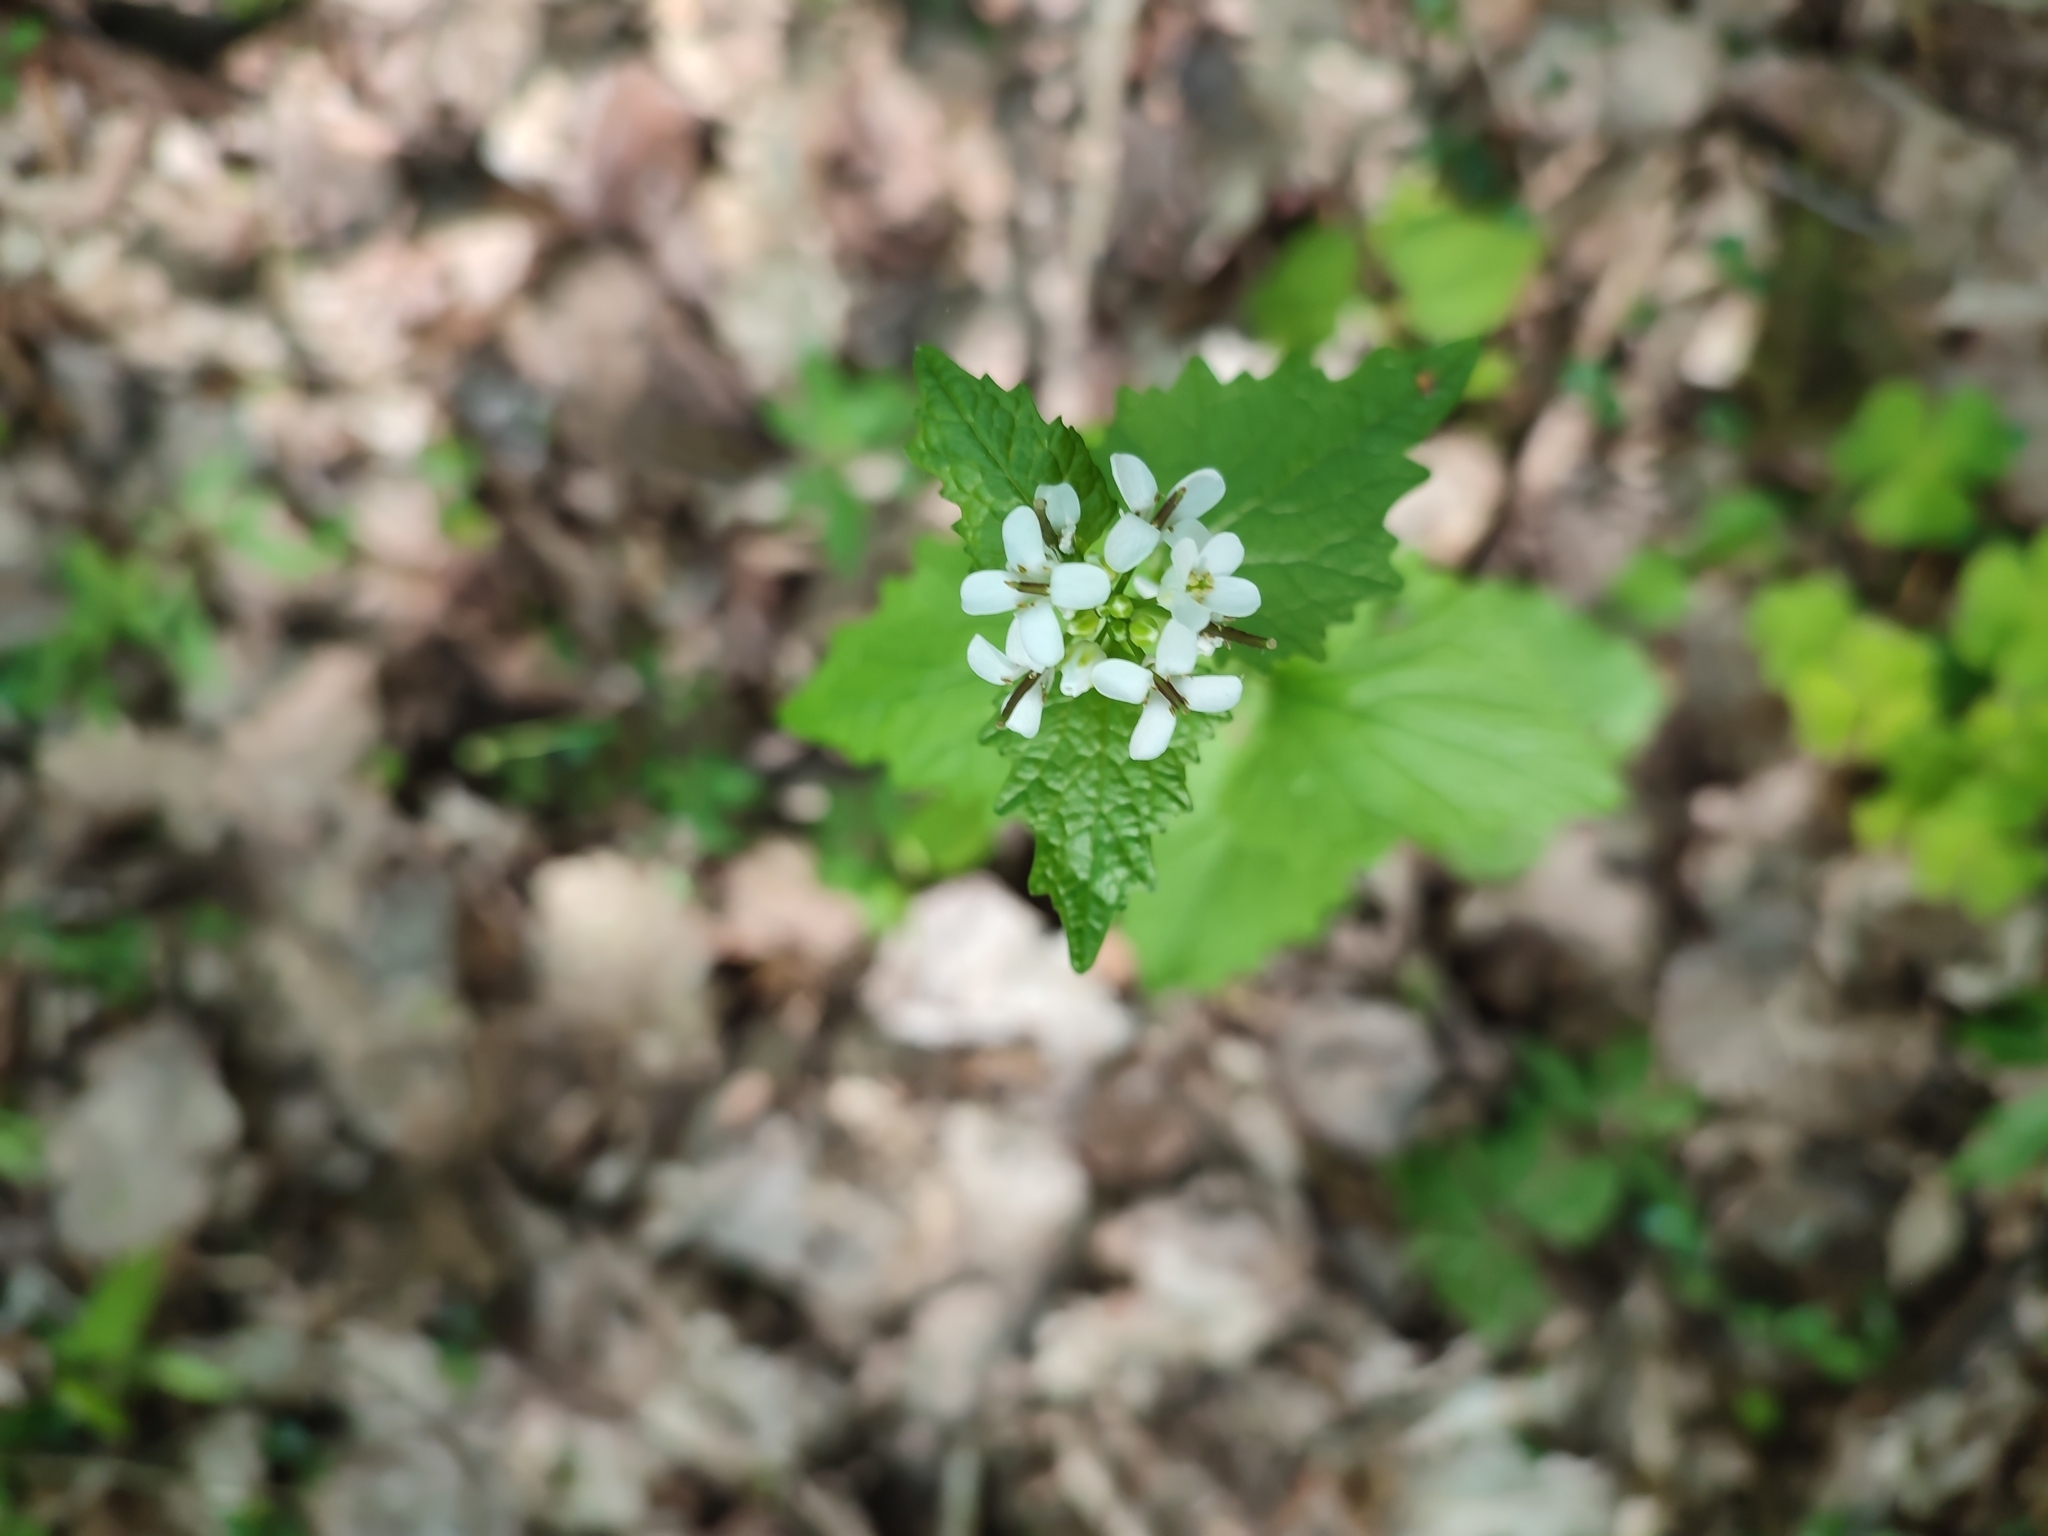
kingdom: Plantae
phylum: Tracheophyta
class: Magnoliopsida
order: Brassicales
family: Brassicaceae
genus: Alliaria
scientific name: Alliaria petiolata
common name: Garlic mustard
